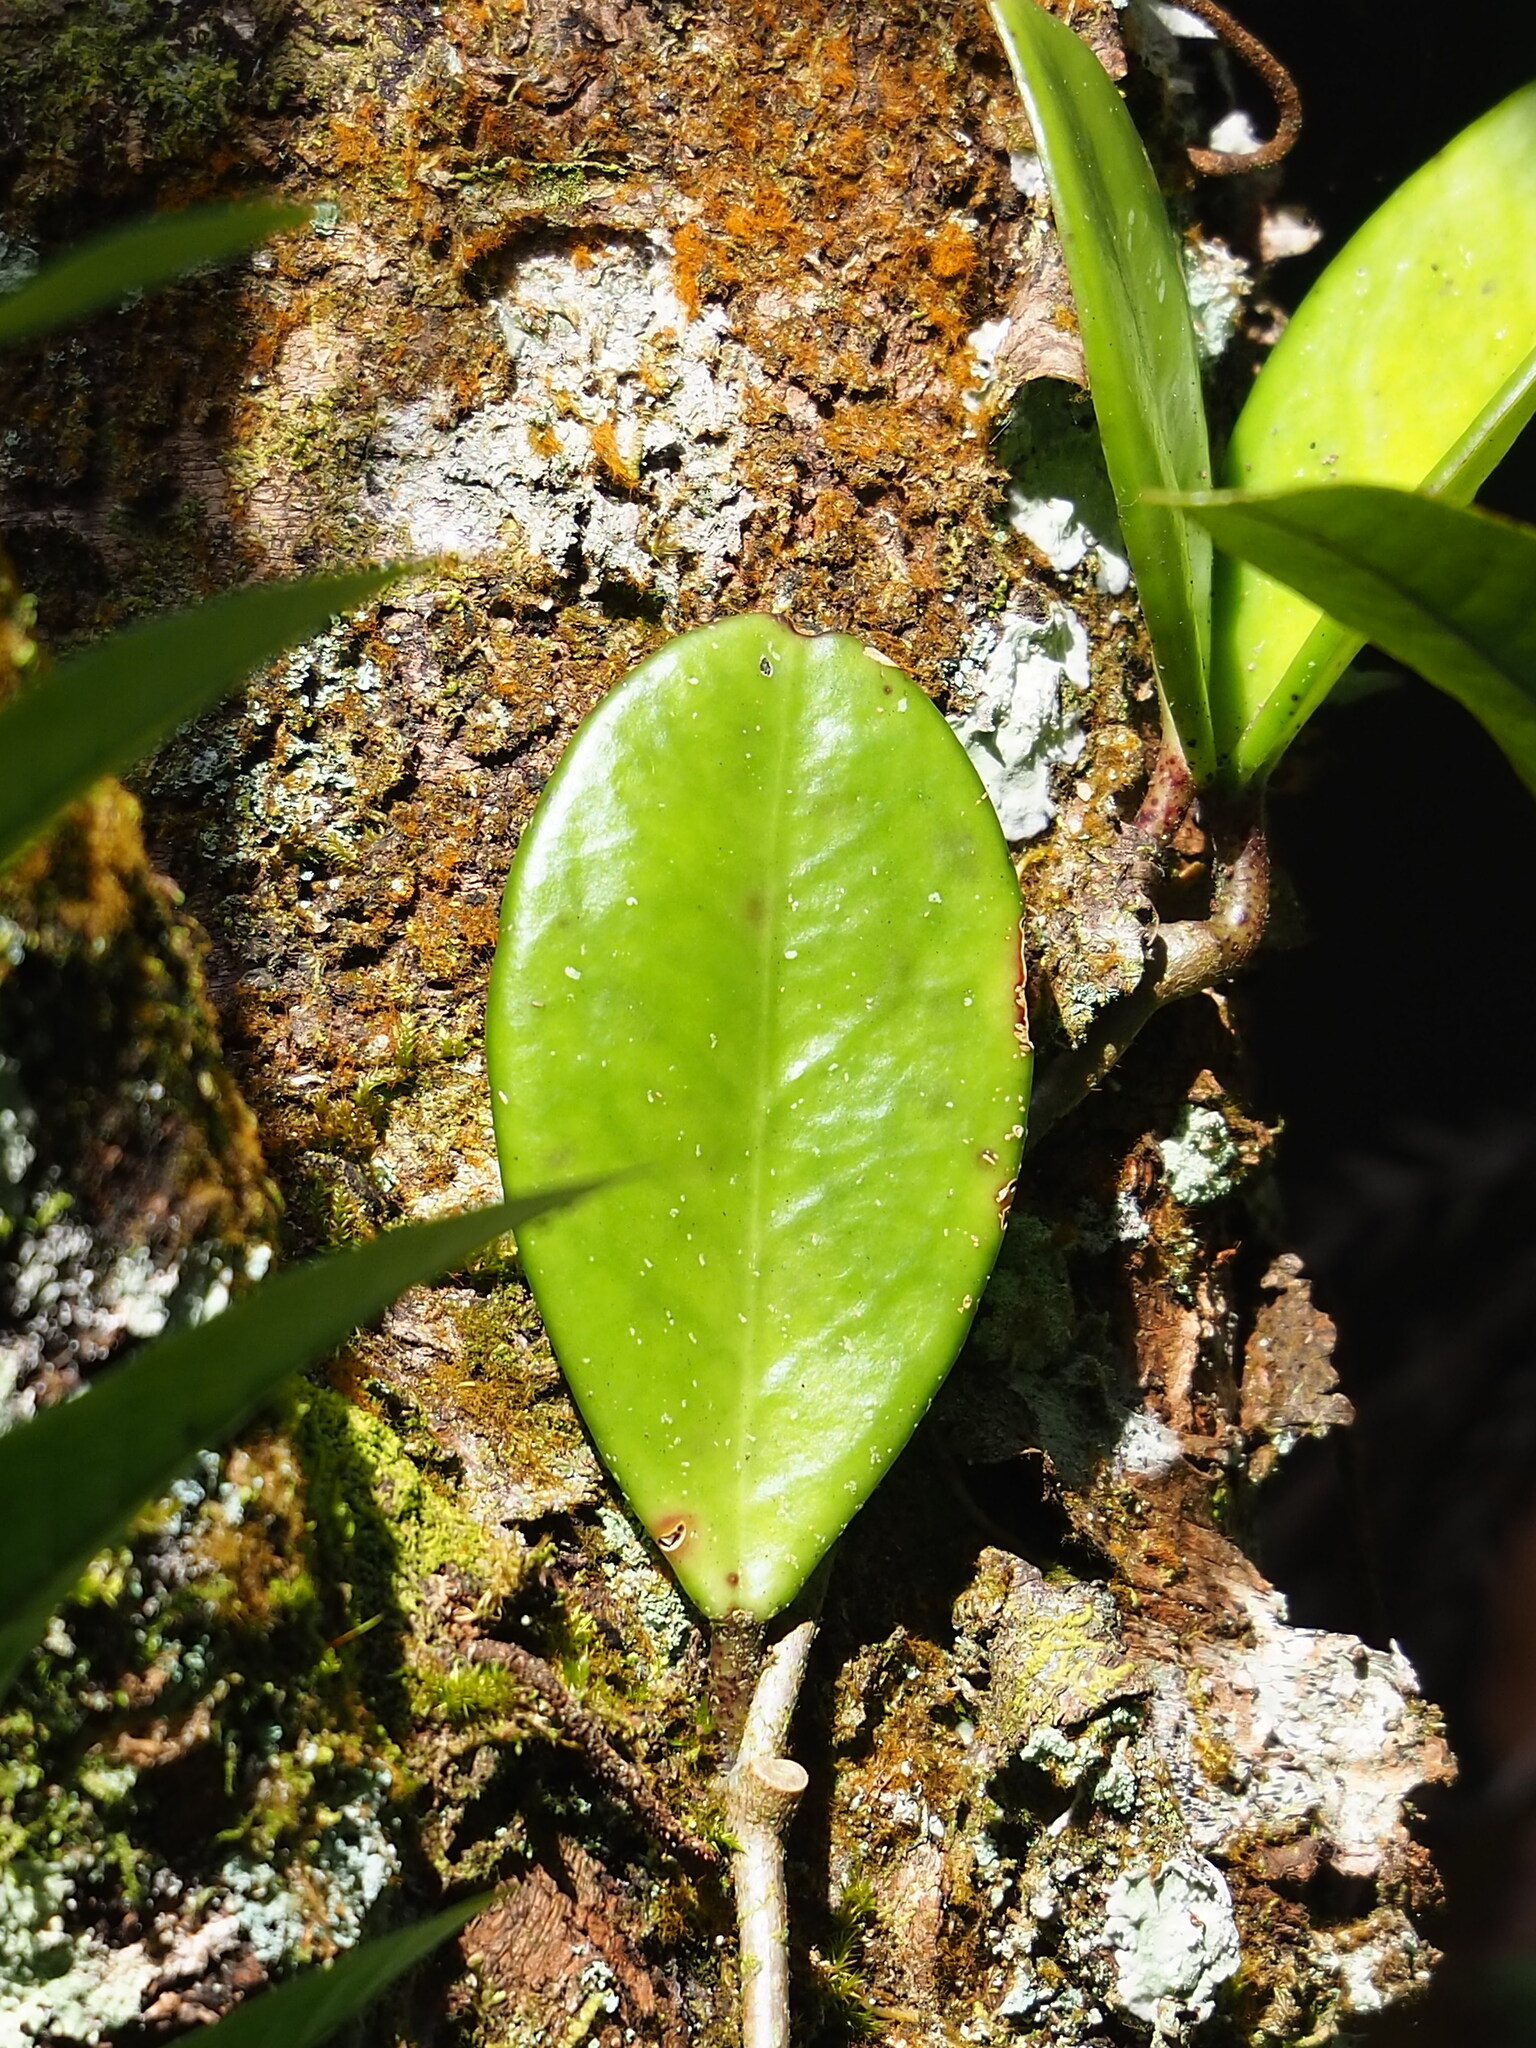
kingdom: Plantae
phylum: Tracheophyta
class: Magnoliopsida
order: Gentianales
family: Apocynaceae
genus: Hoya
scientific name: Hoya carnosa
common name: Honeyplant
